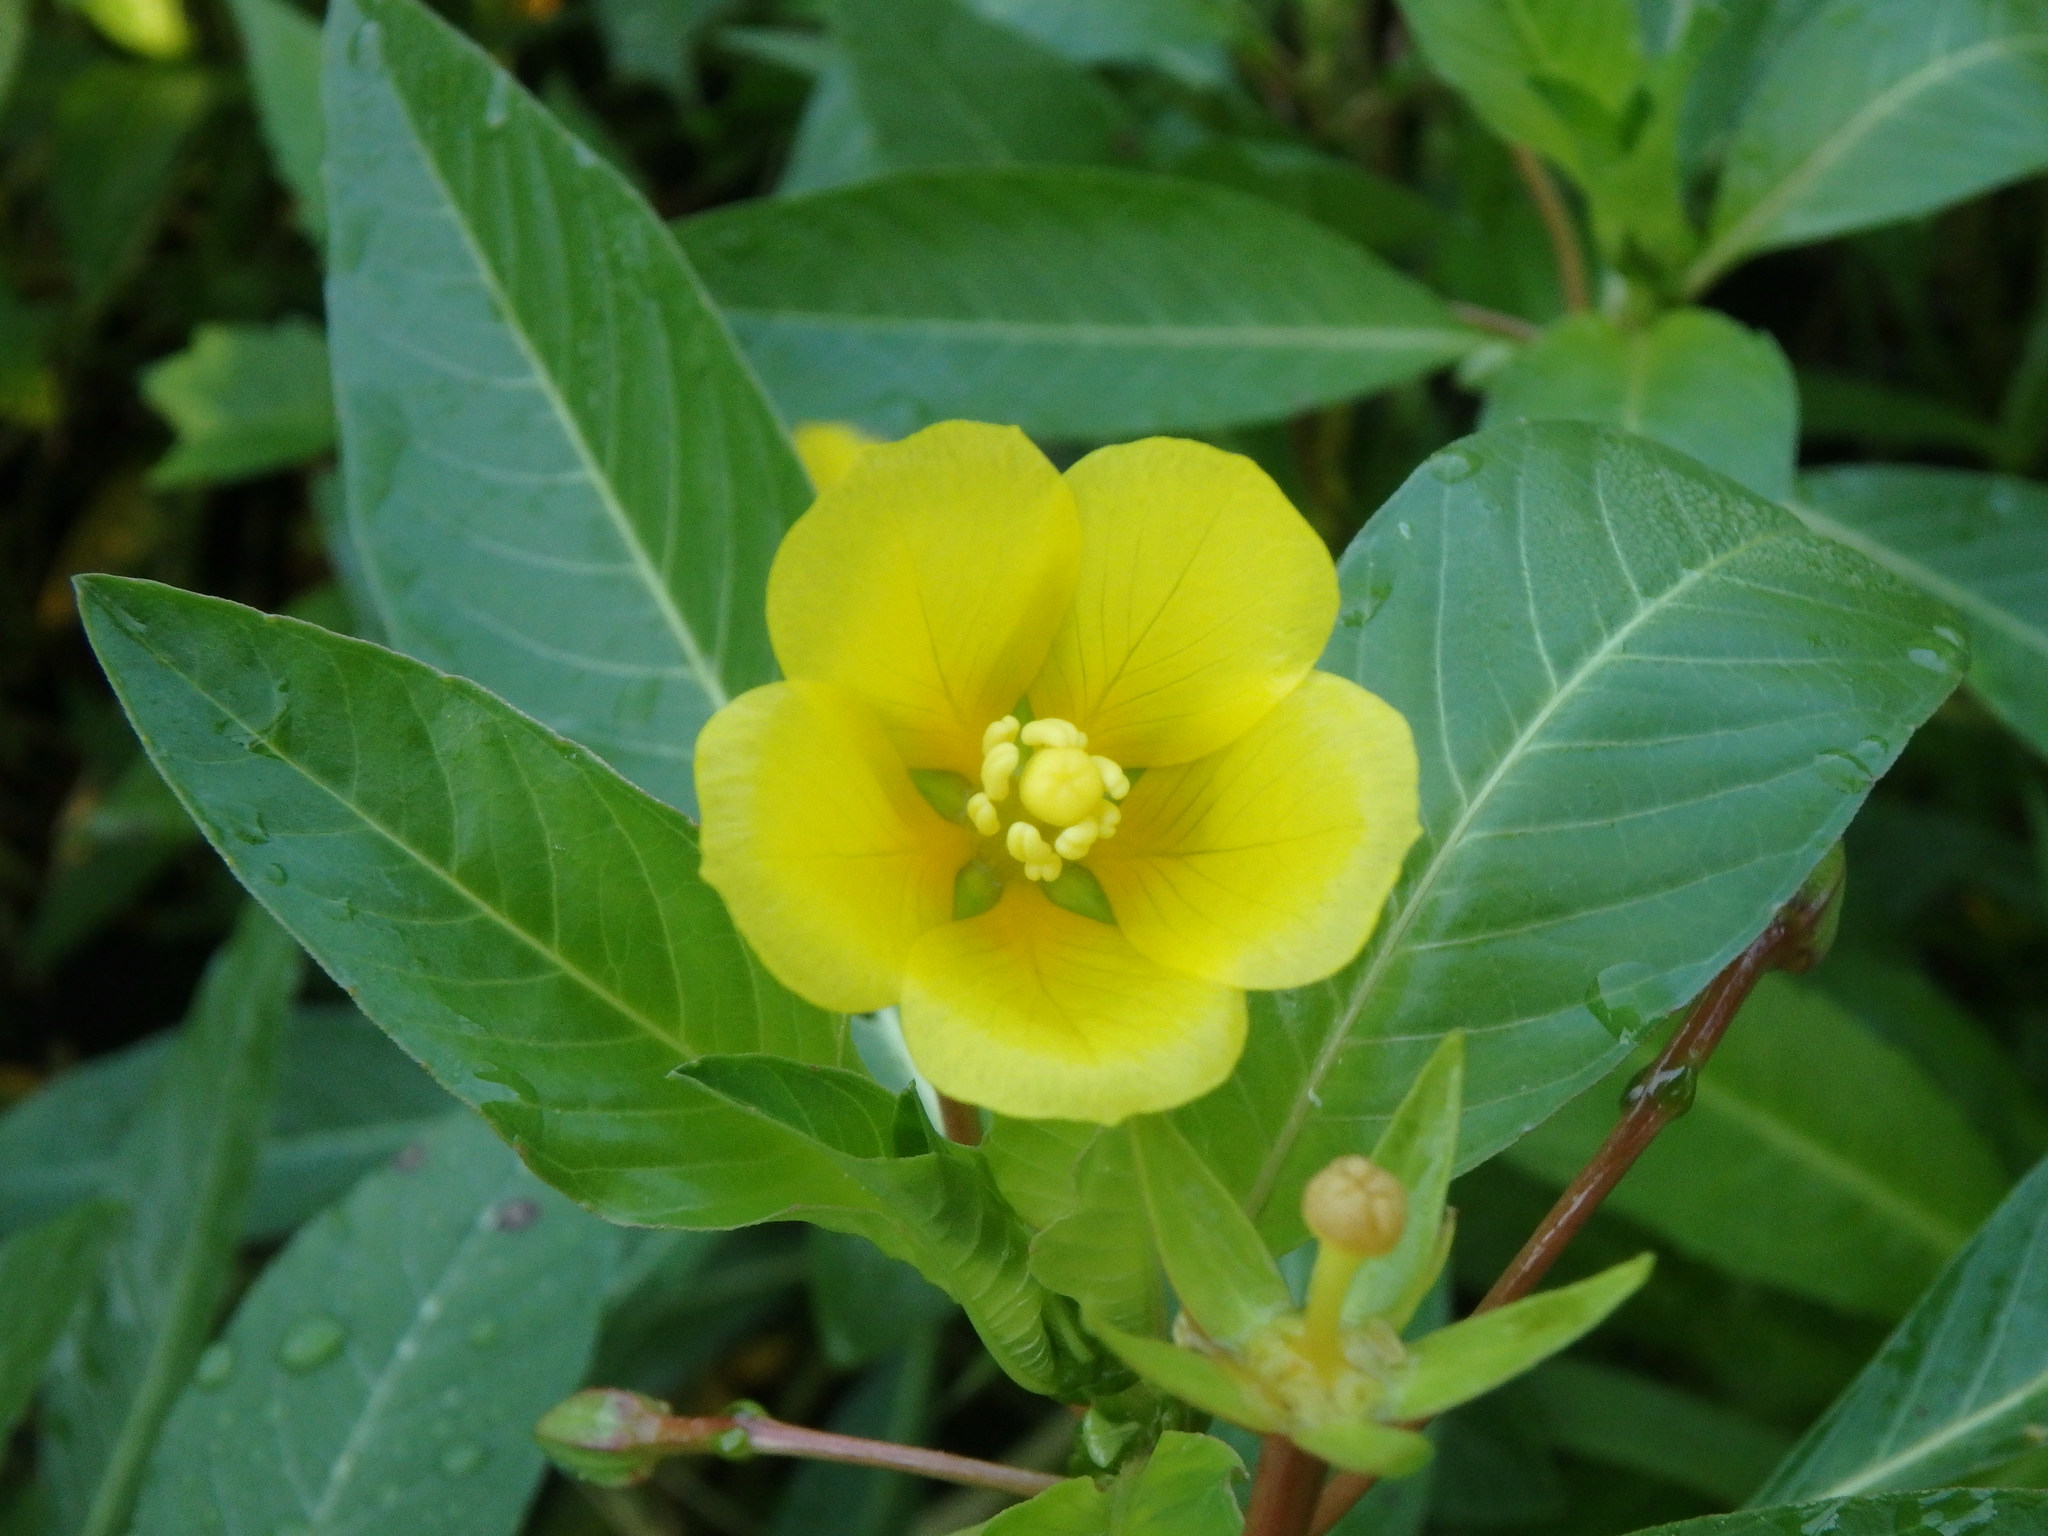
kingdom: Plantae
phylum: Tracheophyta
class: Magnoliopsida
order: Myrtales
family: Onagraceae
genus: Ludwigia
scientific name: Ludwigia peploides
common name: Floating primrose-willow
